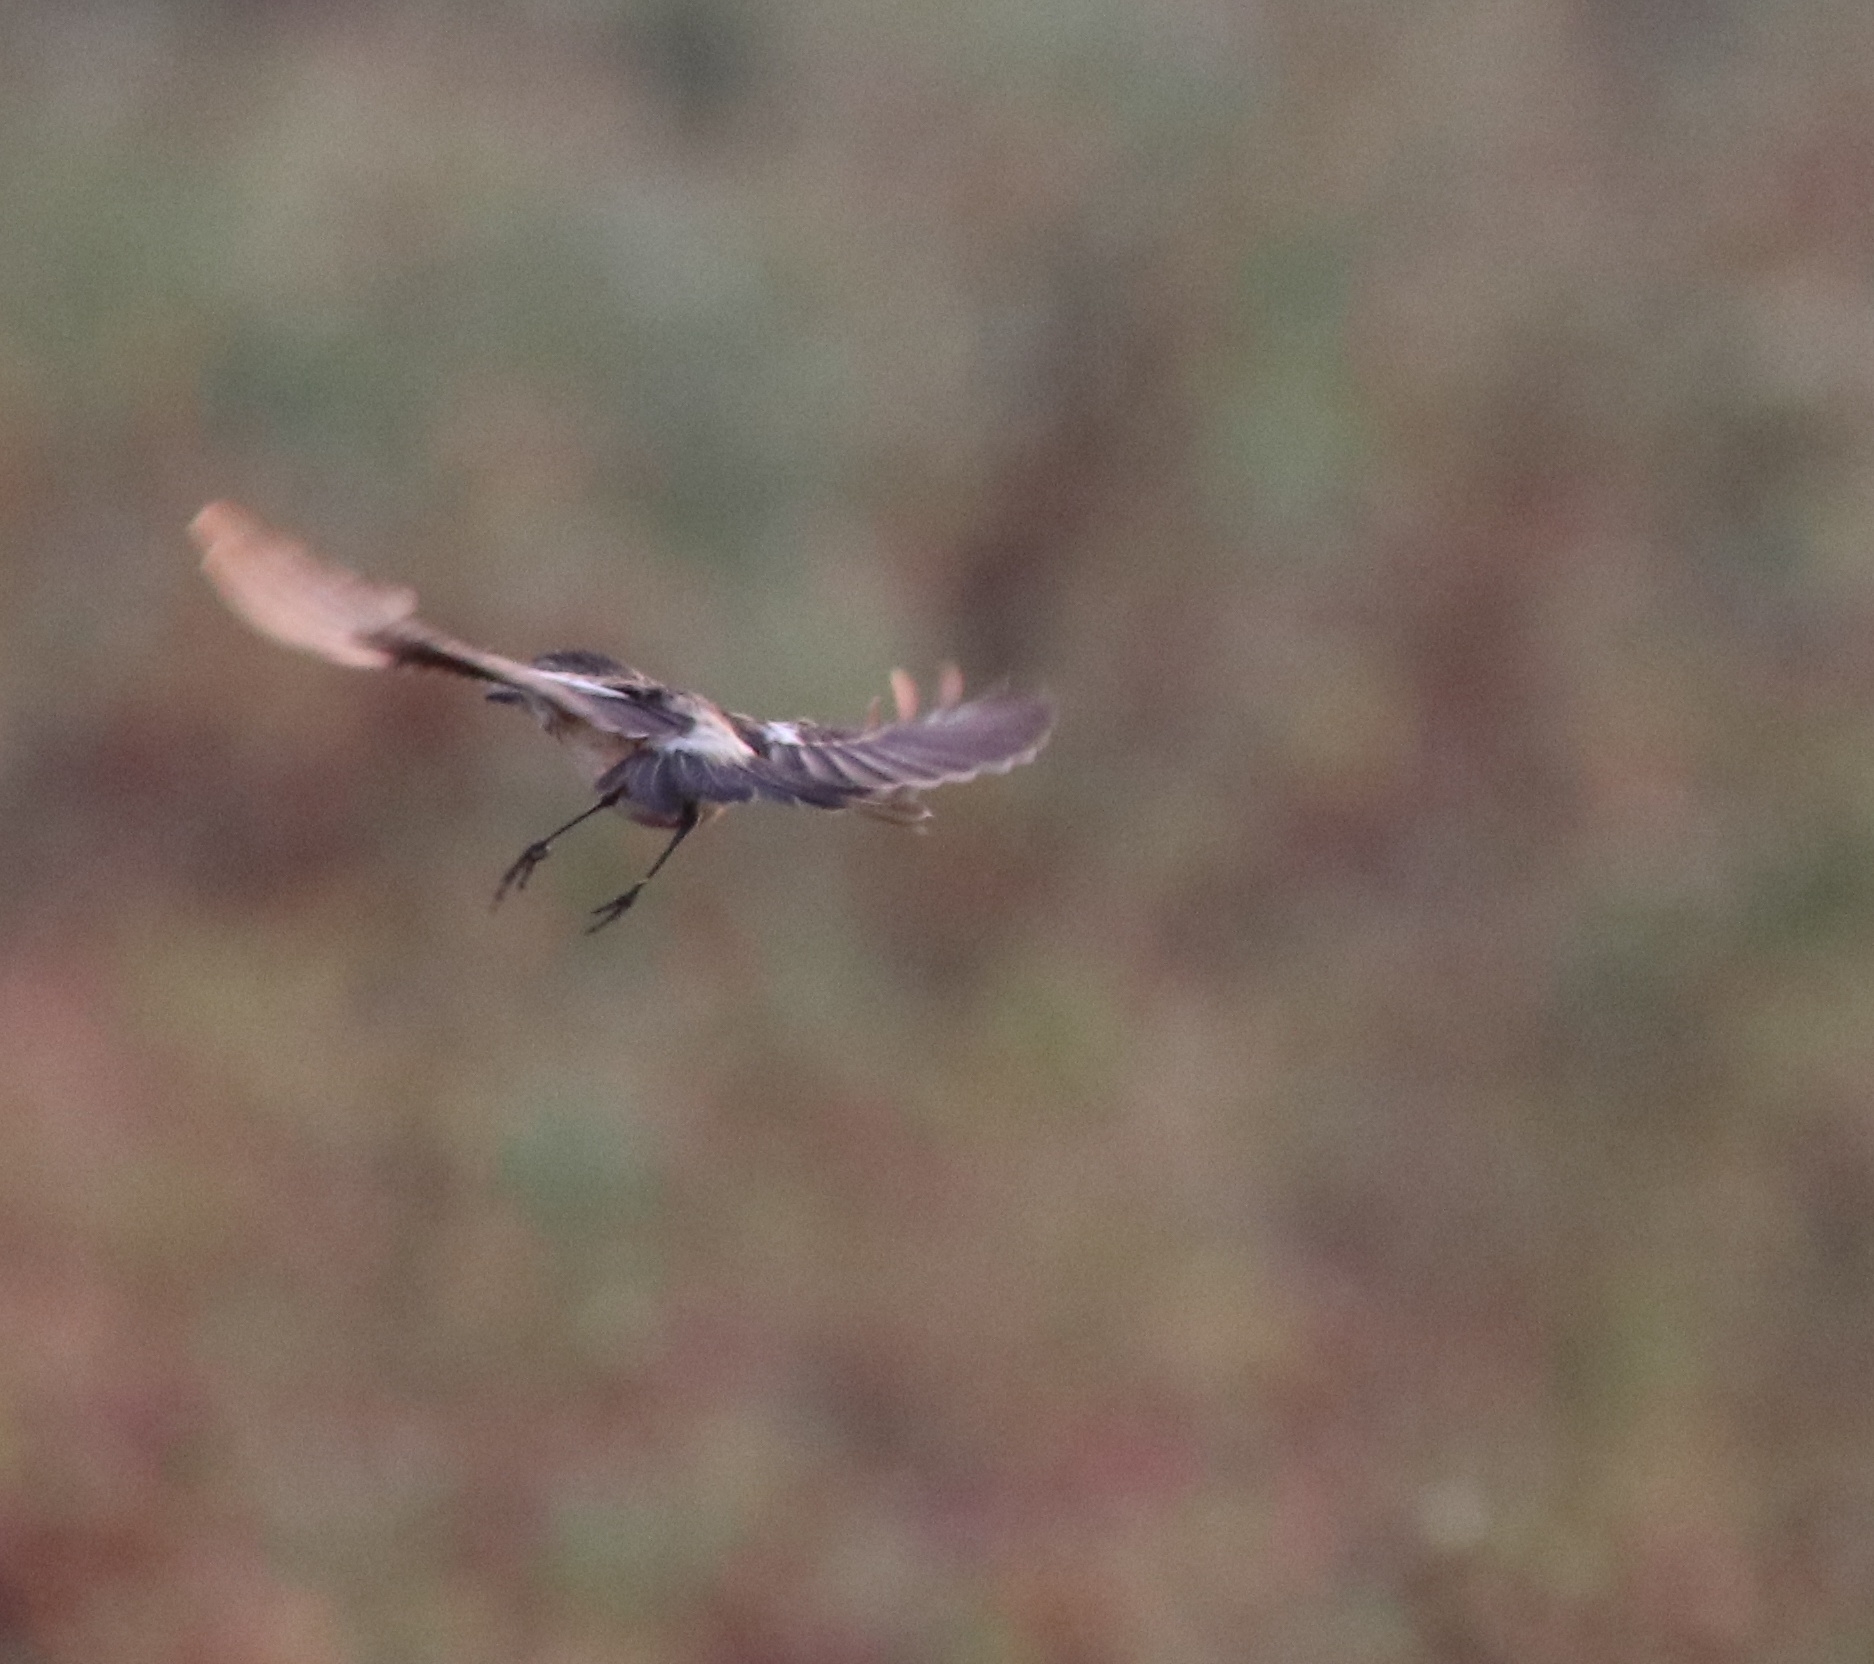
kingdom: Animalia
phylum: Chordata
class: Aves
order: Passeriformes
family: Muscicapidae
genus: Saxicola
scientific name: Saxicola maurus
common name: Siberian stonechat
